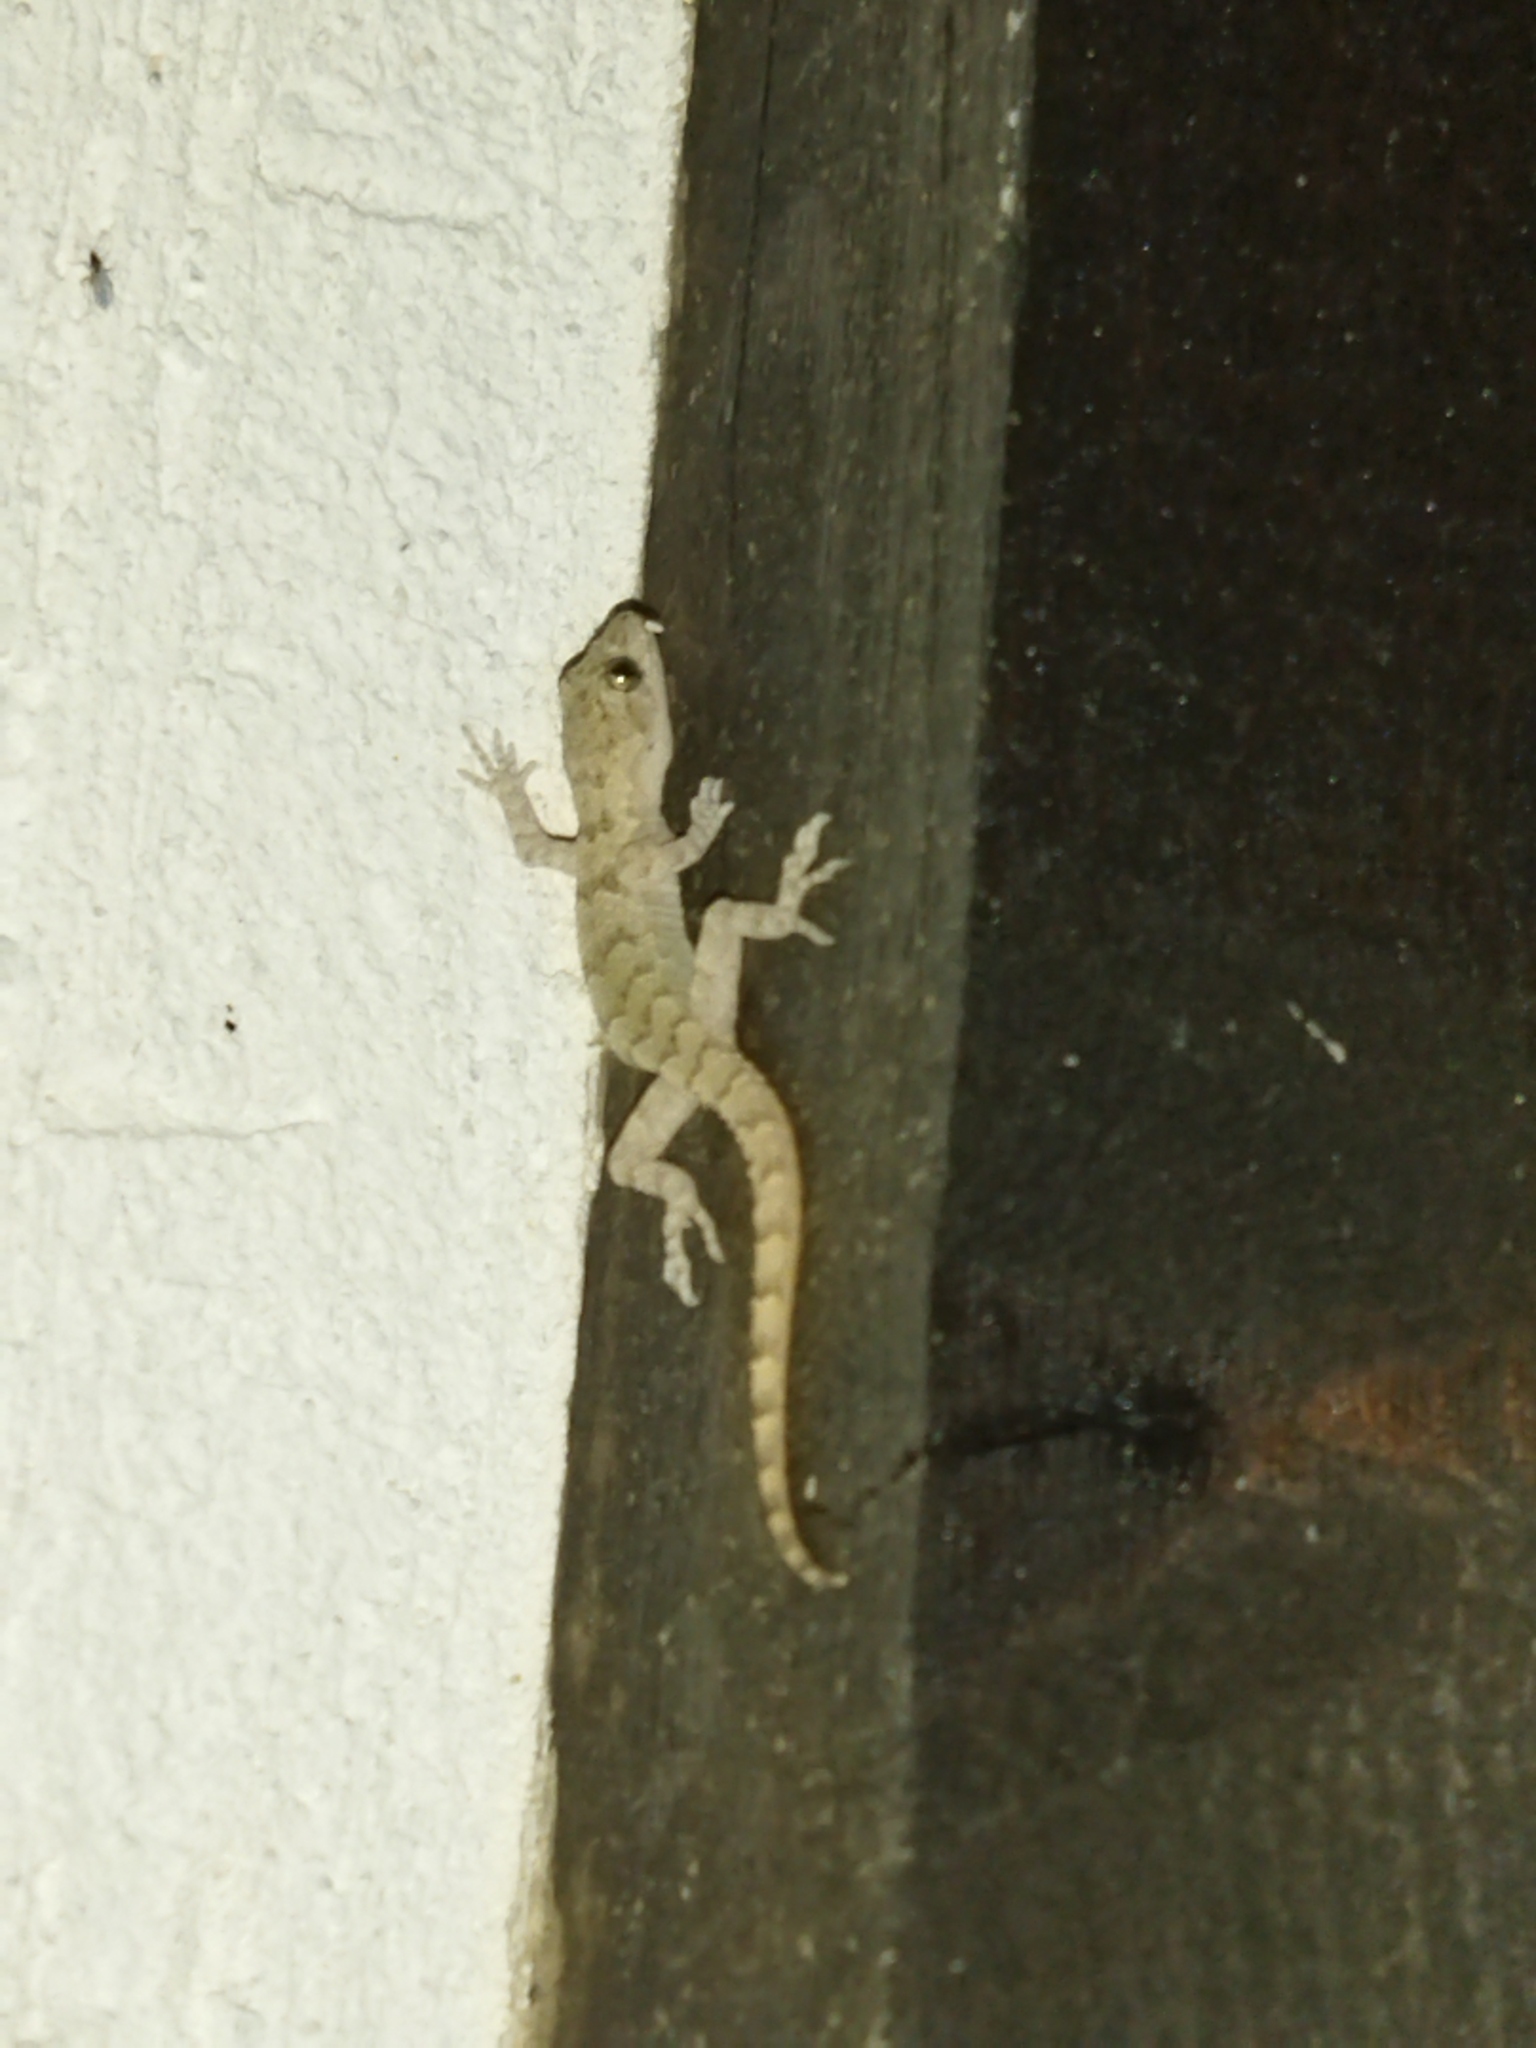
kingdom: Animalia
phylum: Chordata
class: Squamata
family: Gekkonidae
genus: Mediodactylus
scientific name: Mediodactylus kotschyi
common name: Kotschy's gecko
